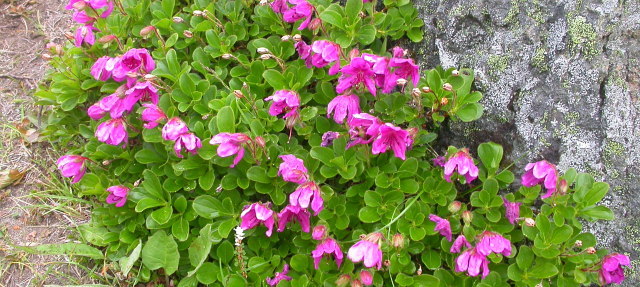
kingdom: Plantae
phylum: Tracheophyta
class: Magnoliopsida
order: Ericales
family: Ericaceae
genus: Rhododendron
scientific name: Rhododendron camtschaticum
